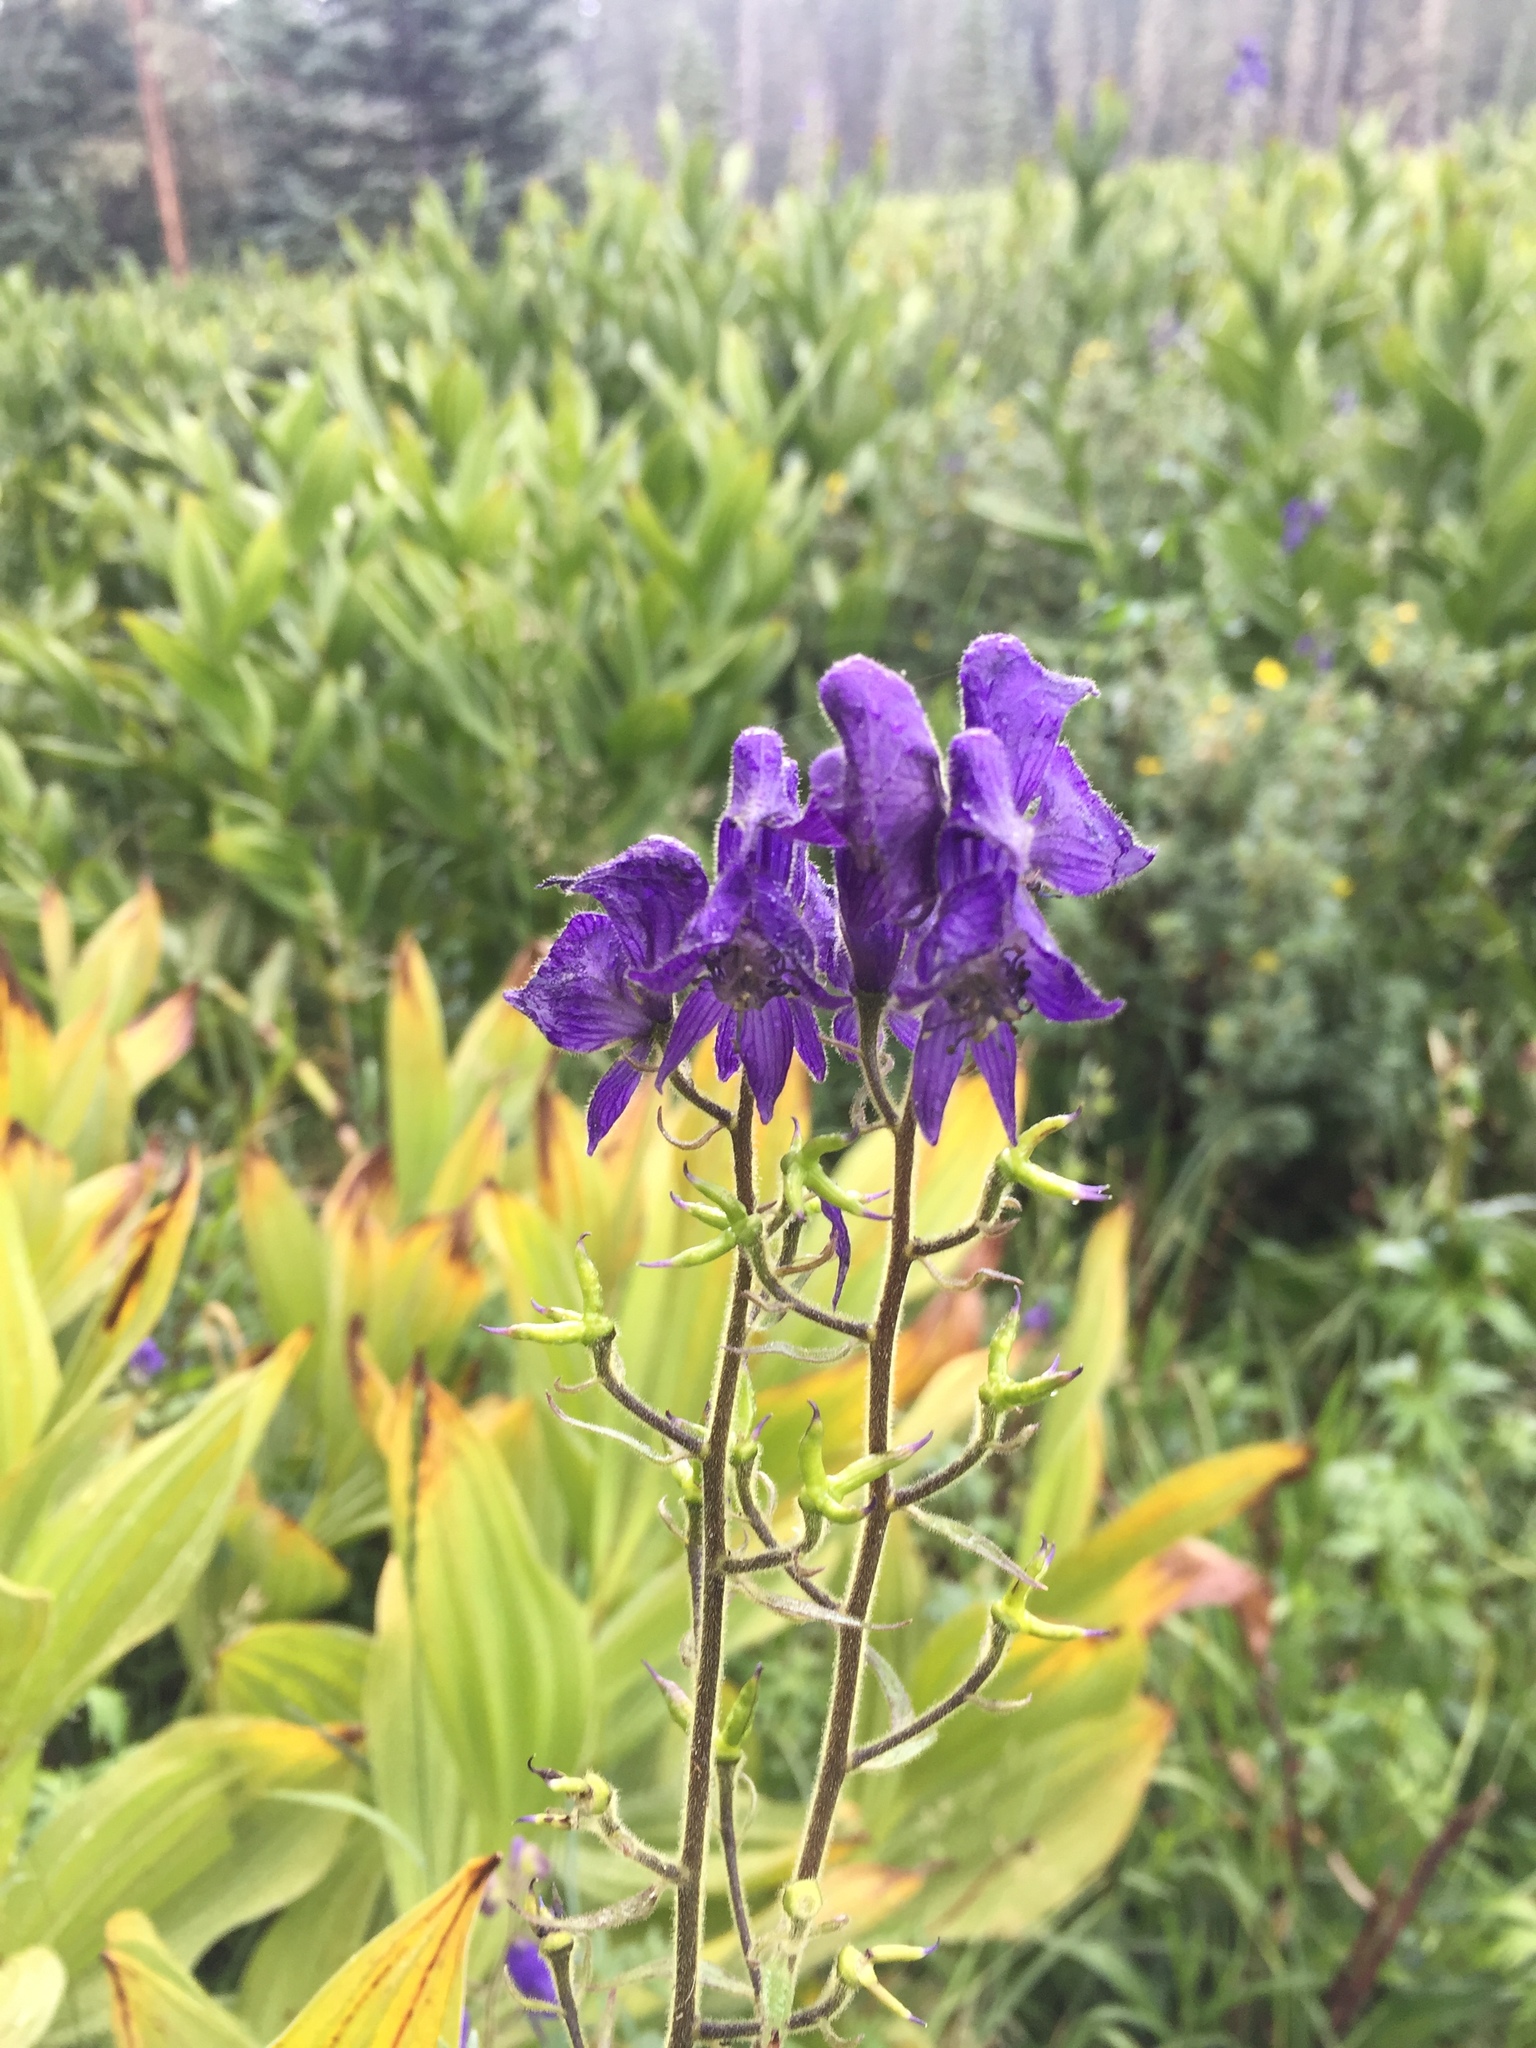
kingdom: Plantae
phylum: Tracheophyta
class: Magnoliopsida
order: Ranunculales
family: Ranunculaceae
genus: Aconitum
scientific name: Aconitum columbianum
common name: Columbia aconite
